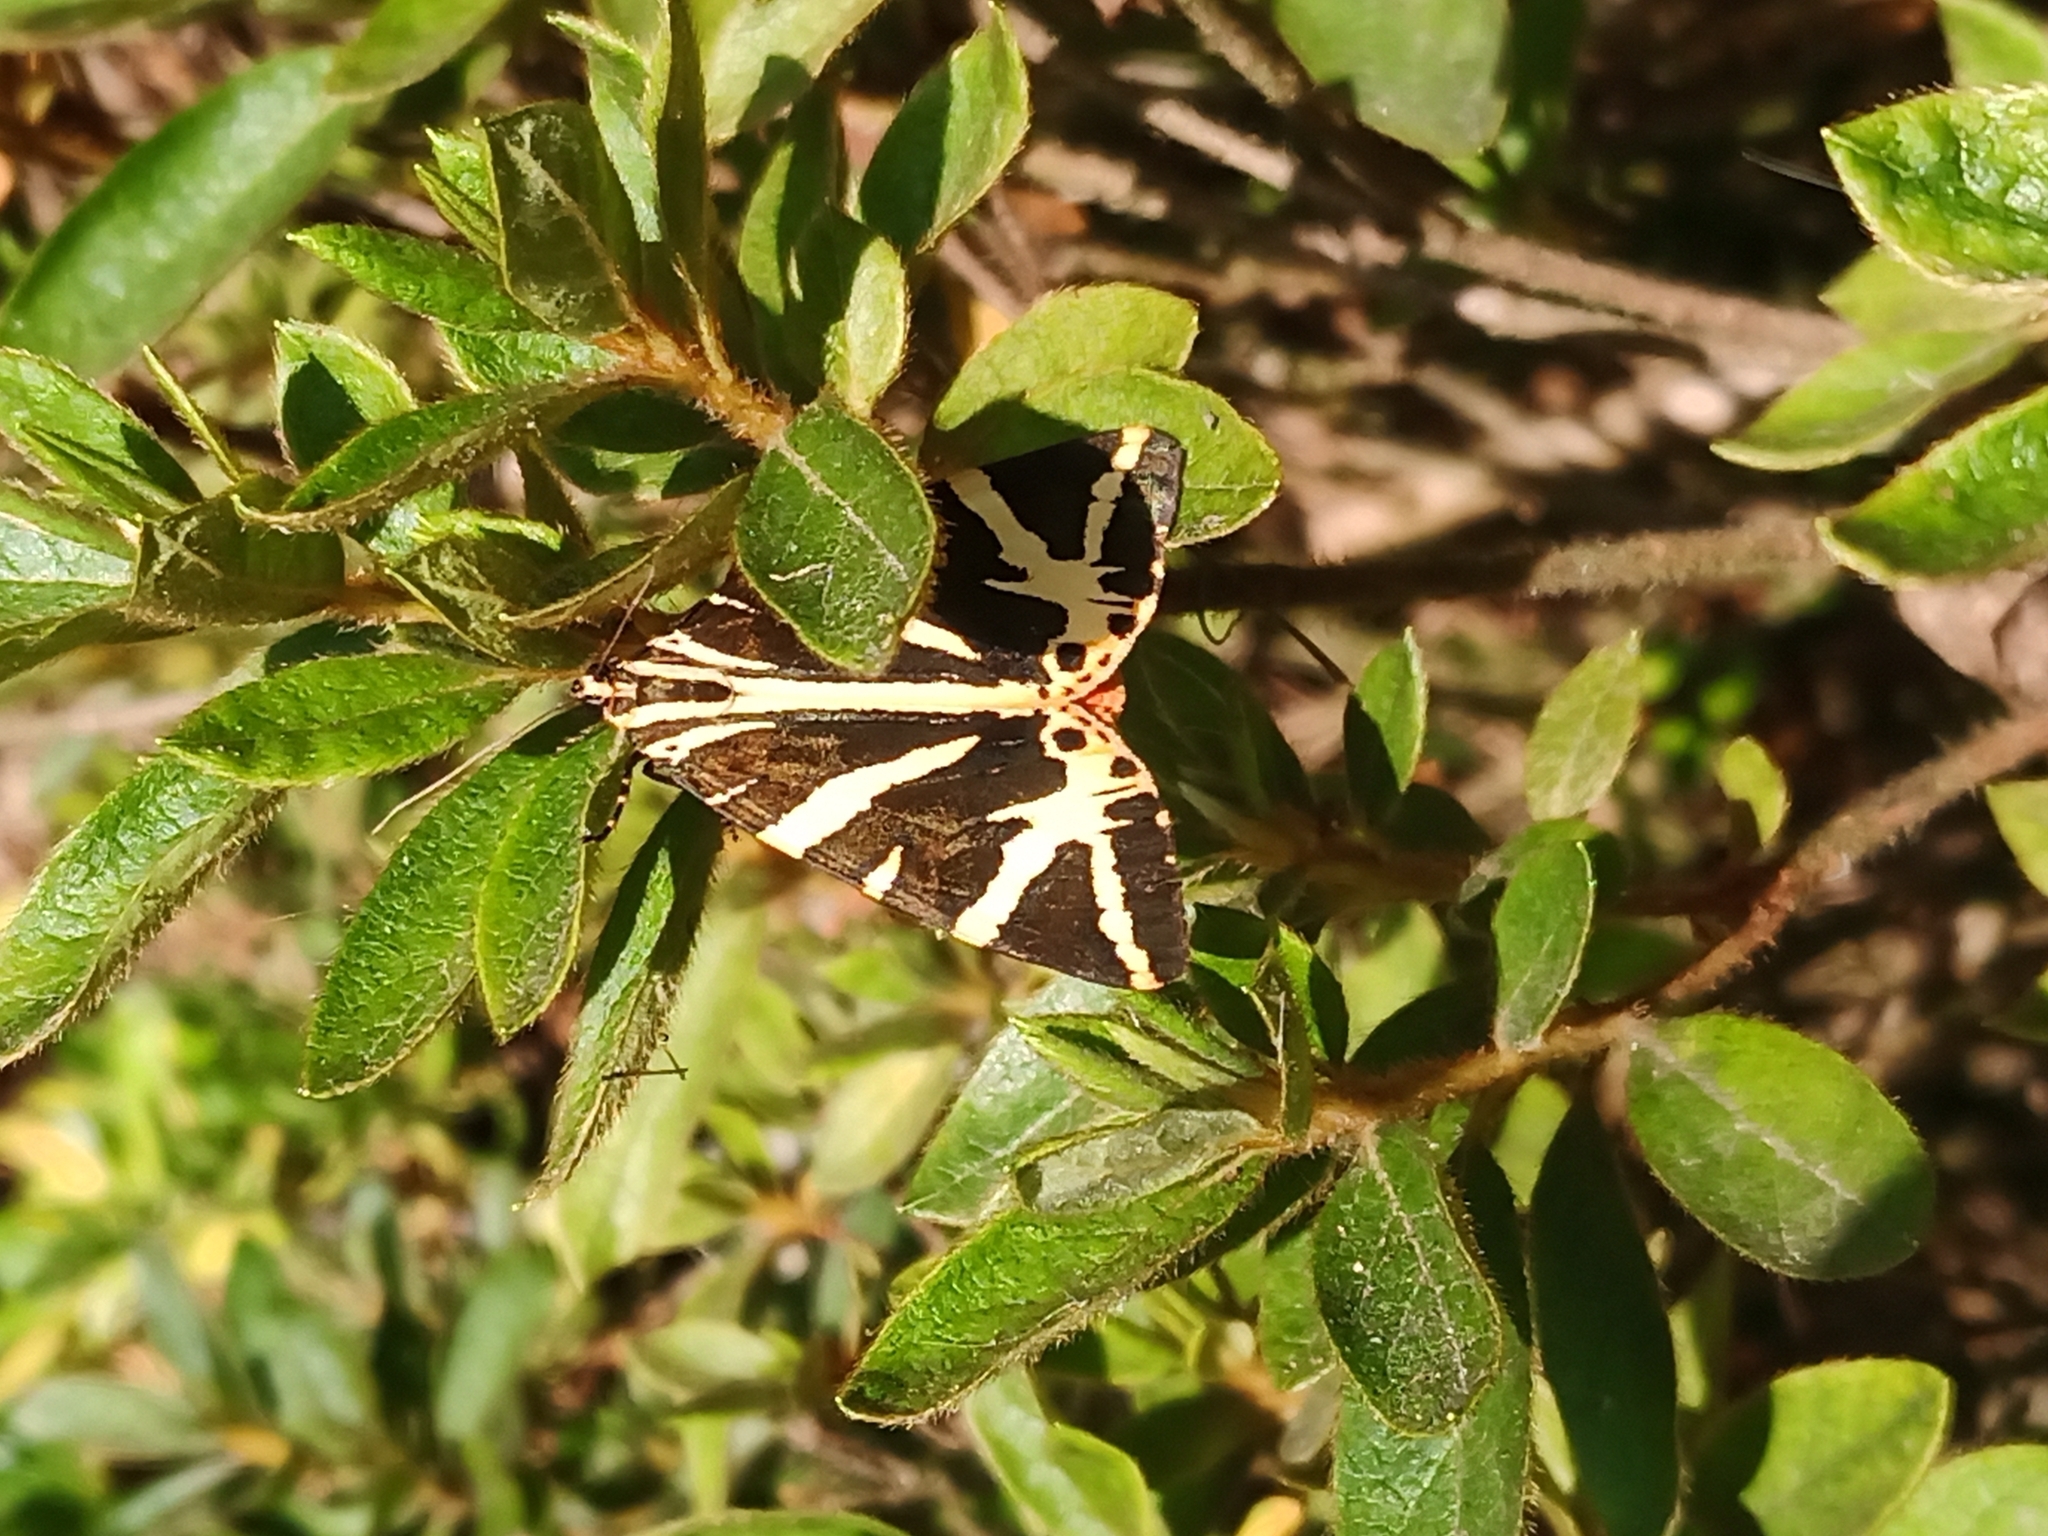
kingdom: Animalia
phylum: Arthropoda
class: Insecta
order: Lepidoptera
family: Erebidae
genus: Euplagia
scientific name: Euplagia quadripunctaria
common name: Jersey tiger
